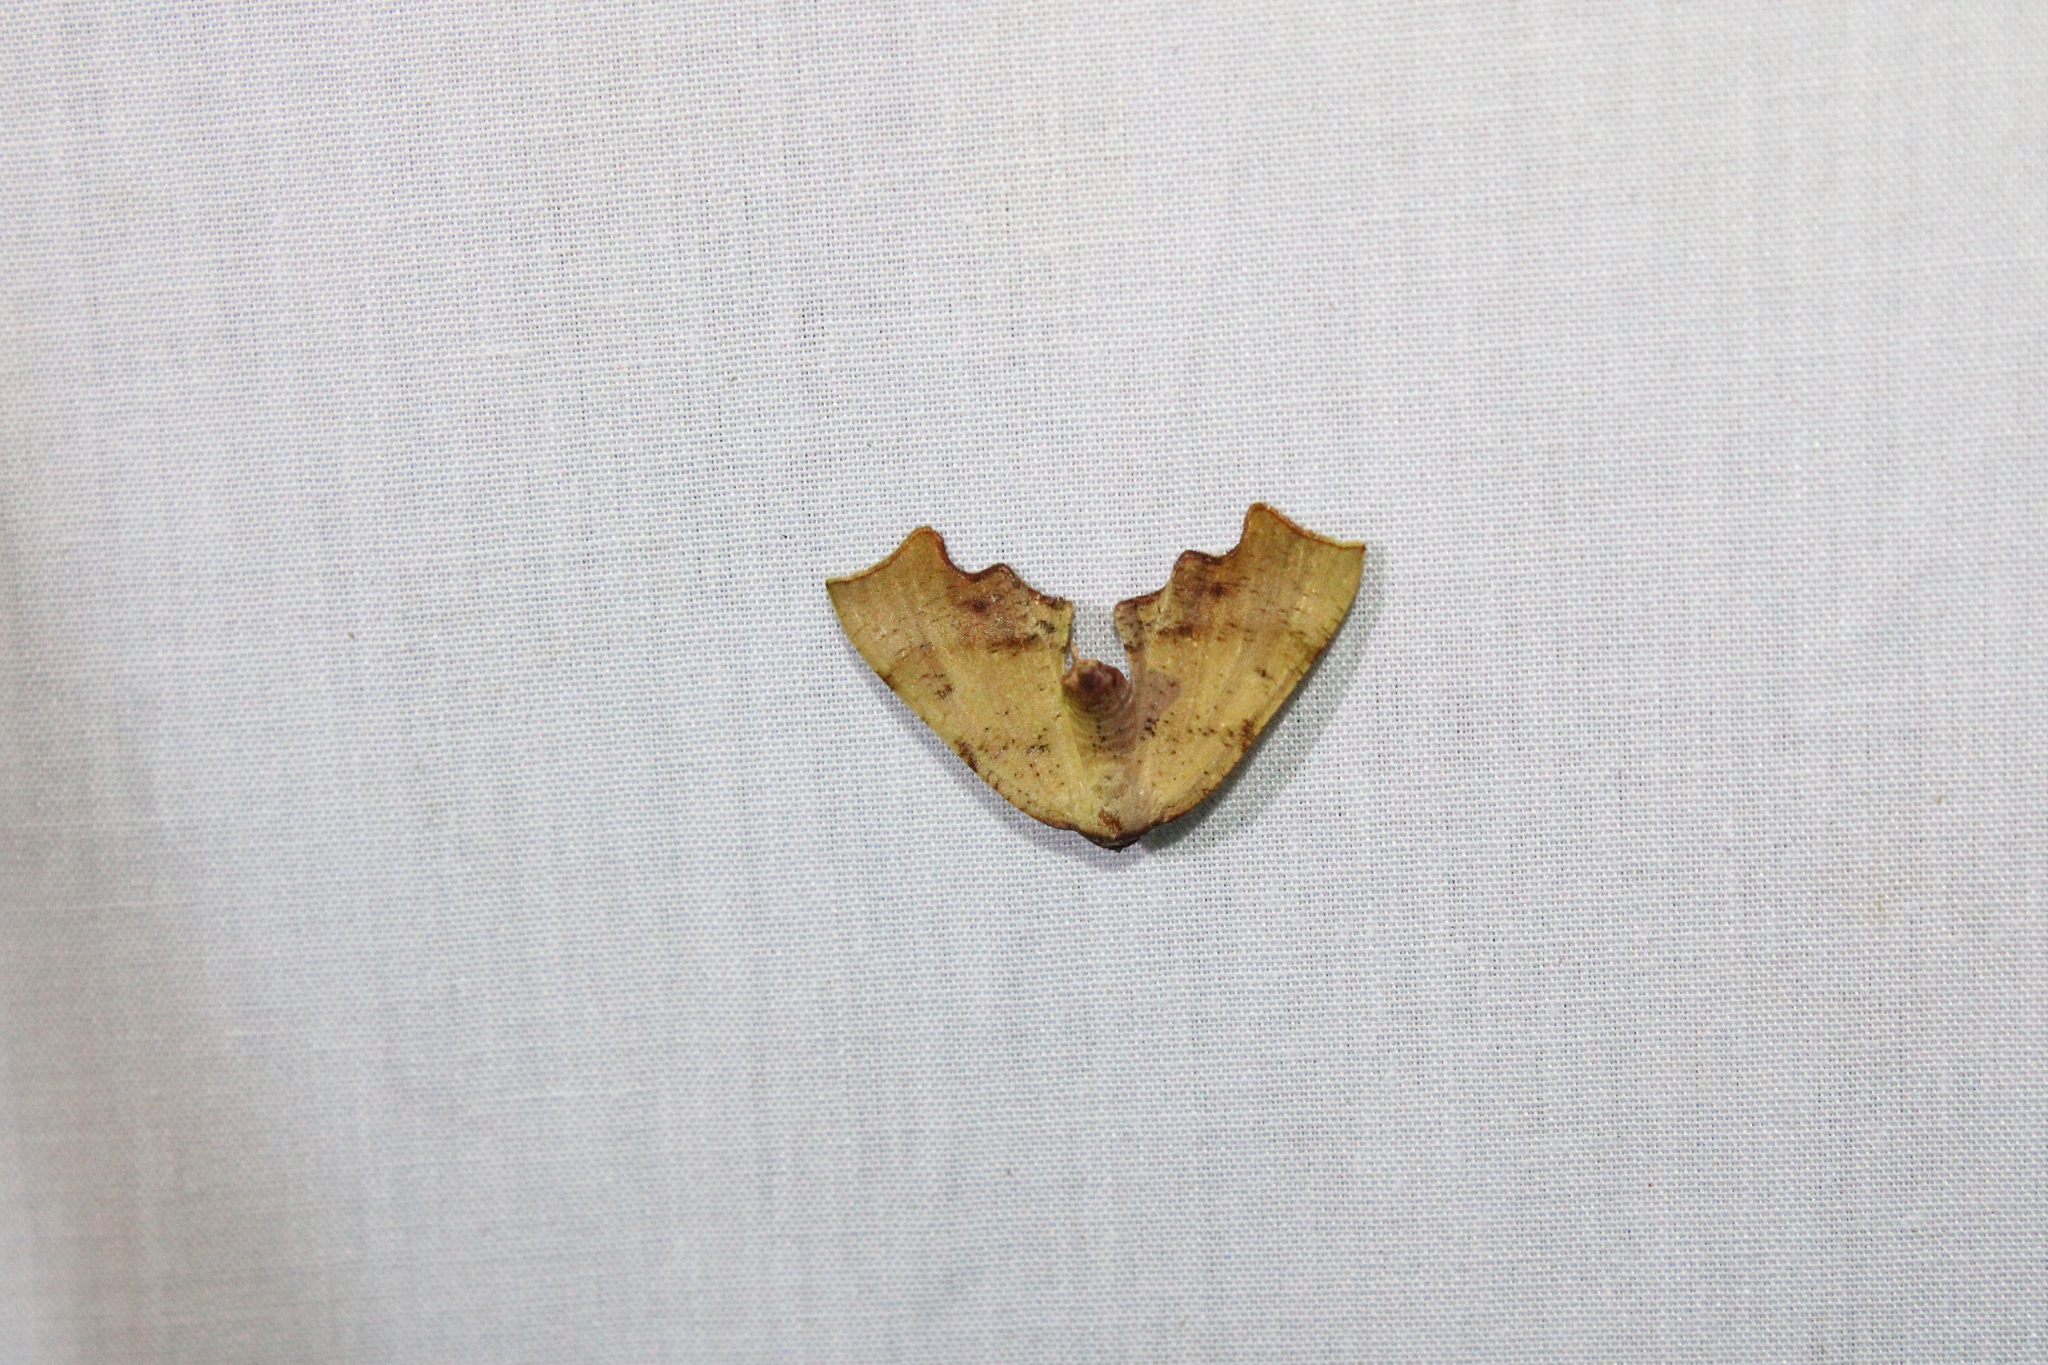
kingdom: Animalia
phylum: Arthropoda
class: Insecta
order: Lepidoptera
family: Geometridae
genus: Plagodis
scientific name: Plagodis fervidaria
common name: Fervid plagodis
